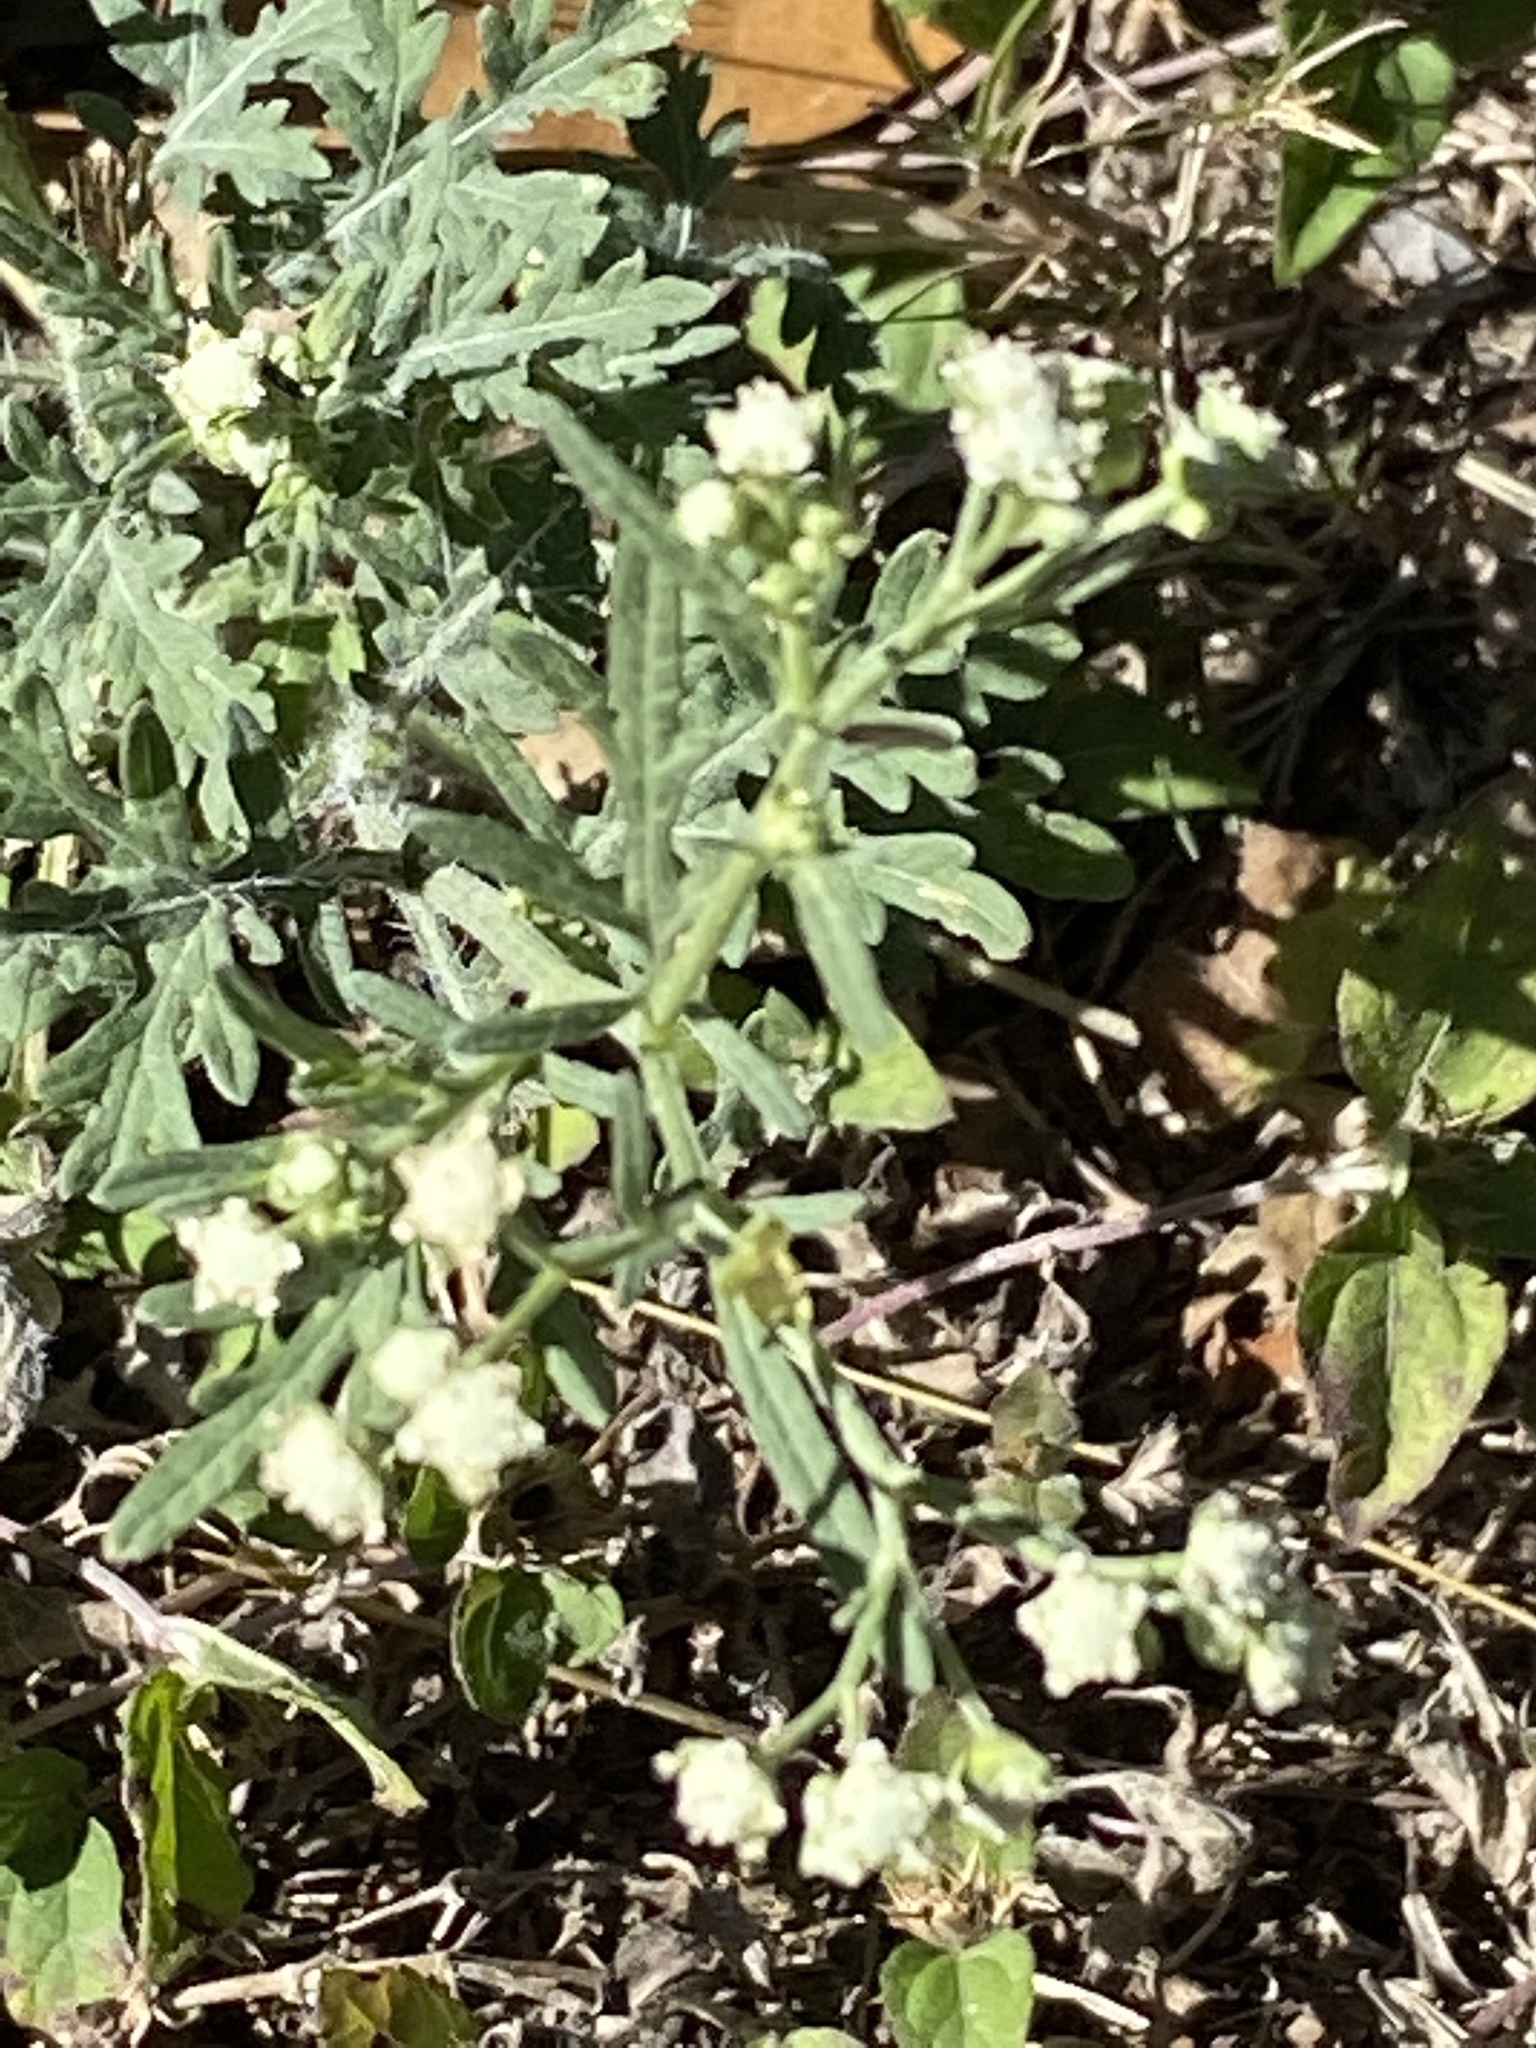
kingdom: Plantae
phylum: Tracheophyta
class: Magnoliopsida
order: Asterales
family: Asteraceae
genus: Parthenium
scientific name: Parthenium hysterophorus
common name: Santa maria feverfew
